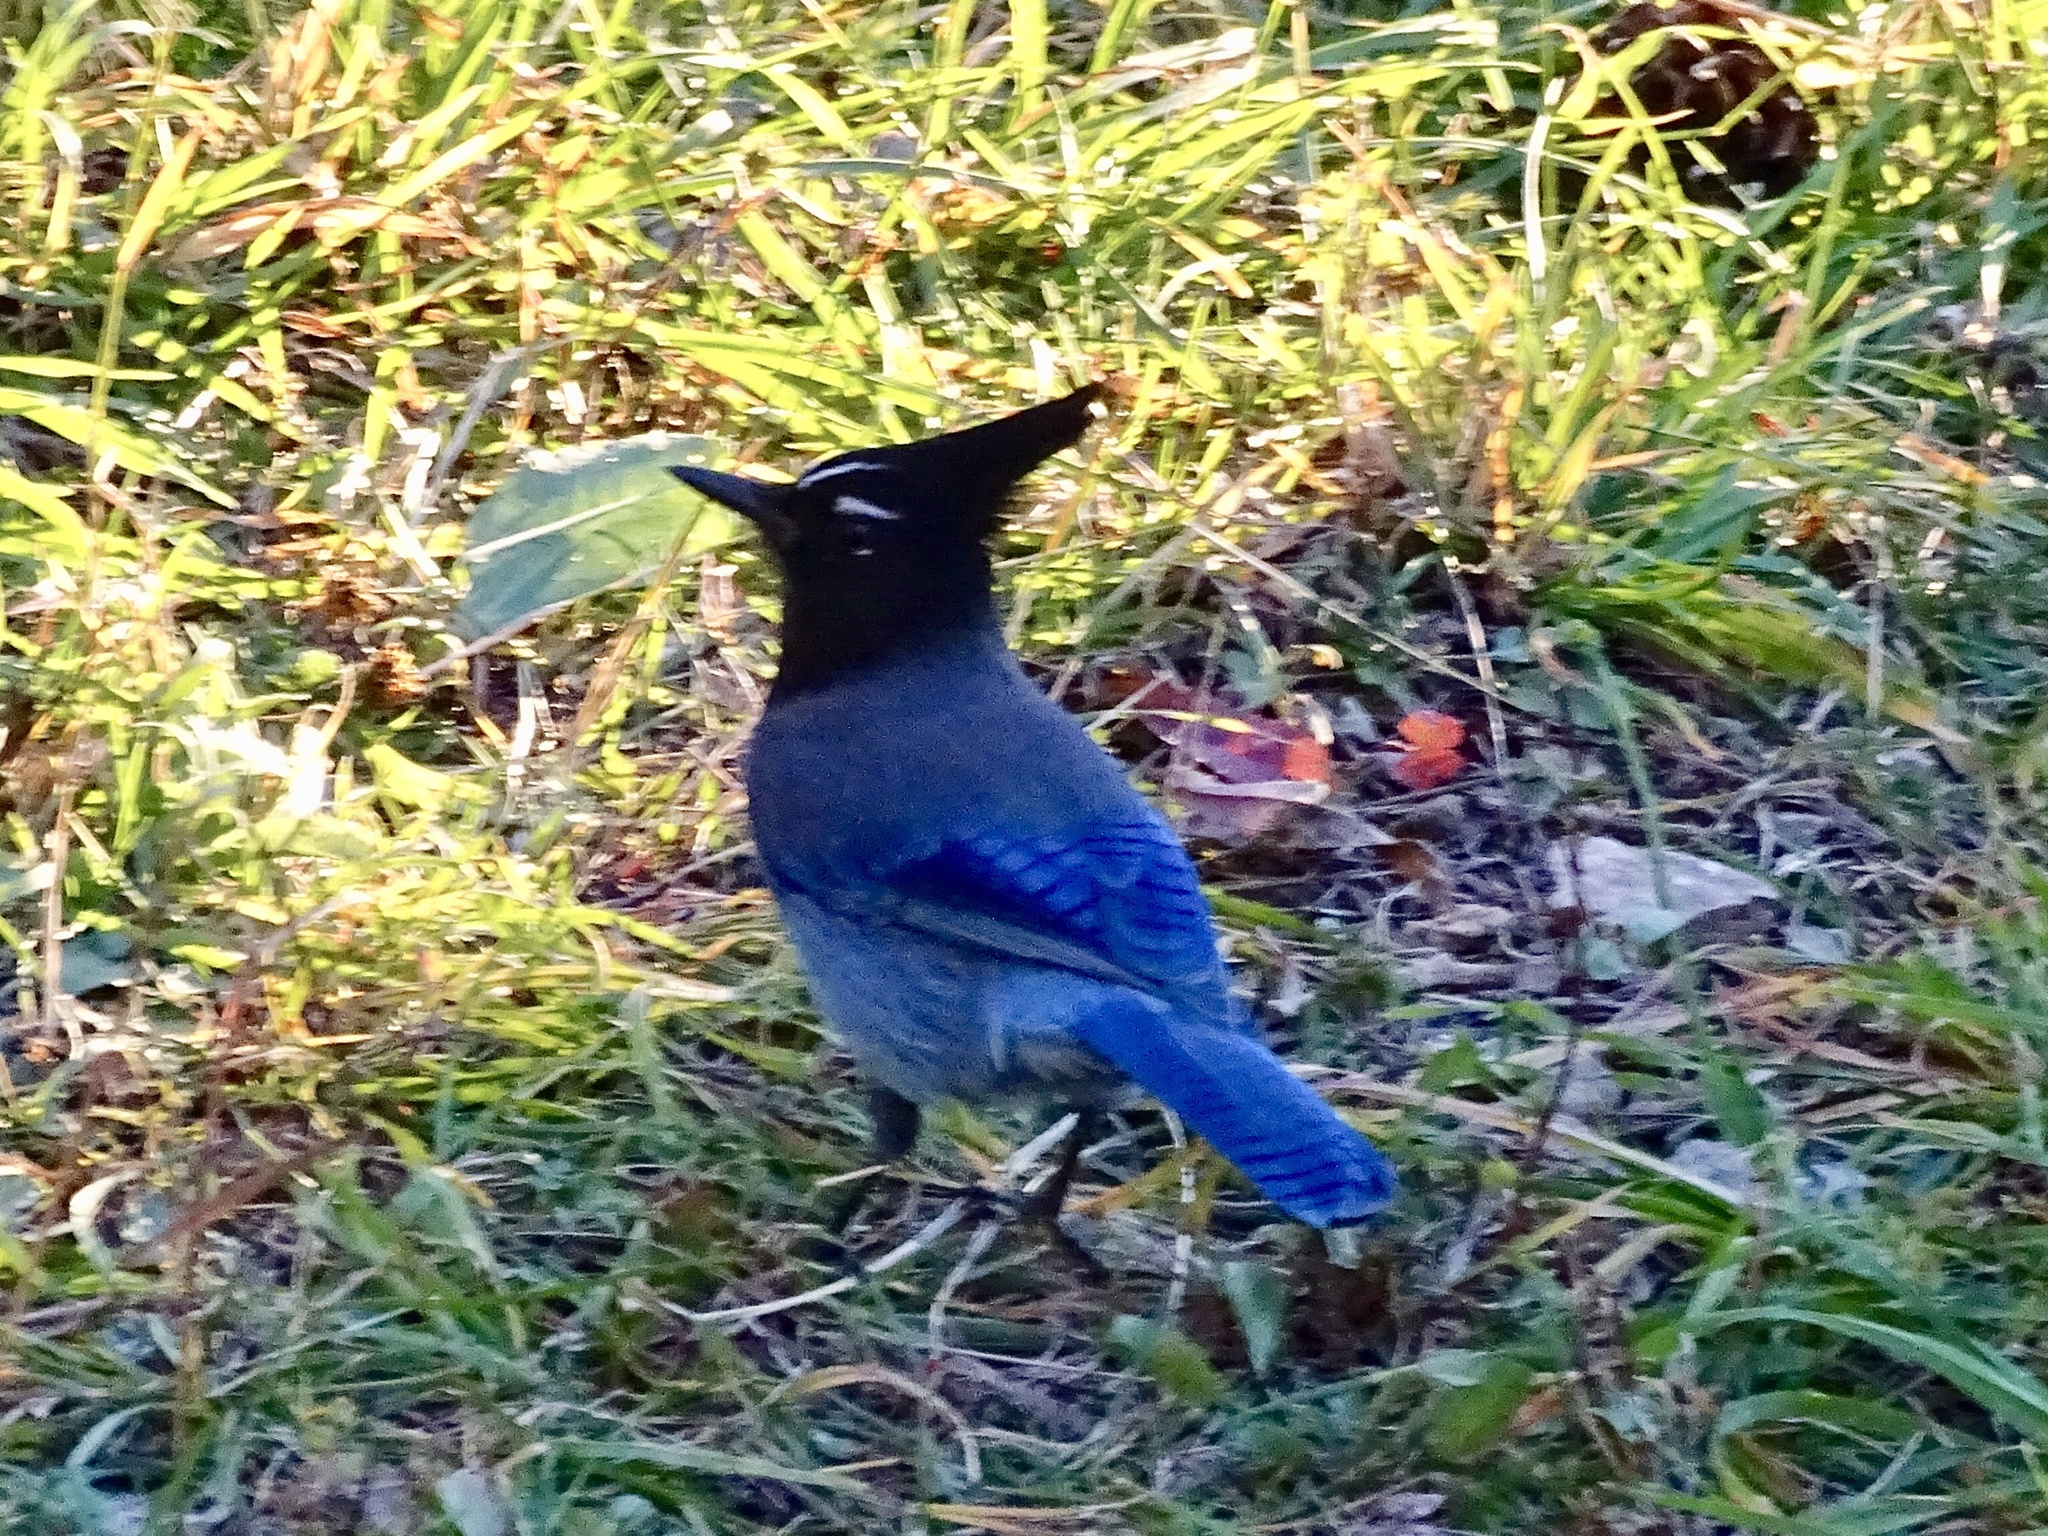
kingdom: Animalia
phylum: Chordata
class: Aves
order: Passeriformes
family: Corvidae
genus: Cyanocitta
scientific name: Cyanocitta stelleri
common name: Steller's jay
